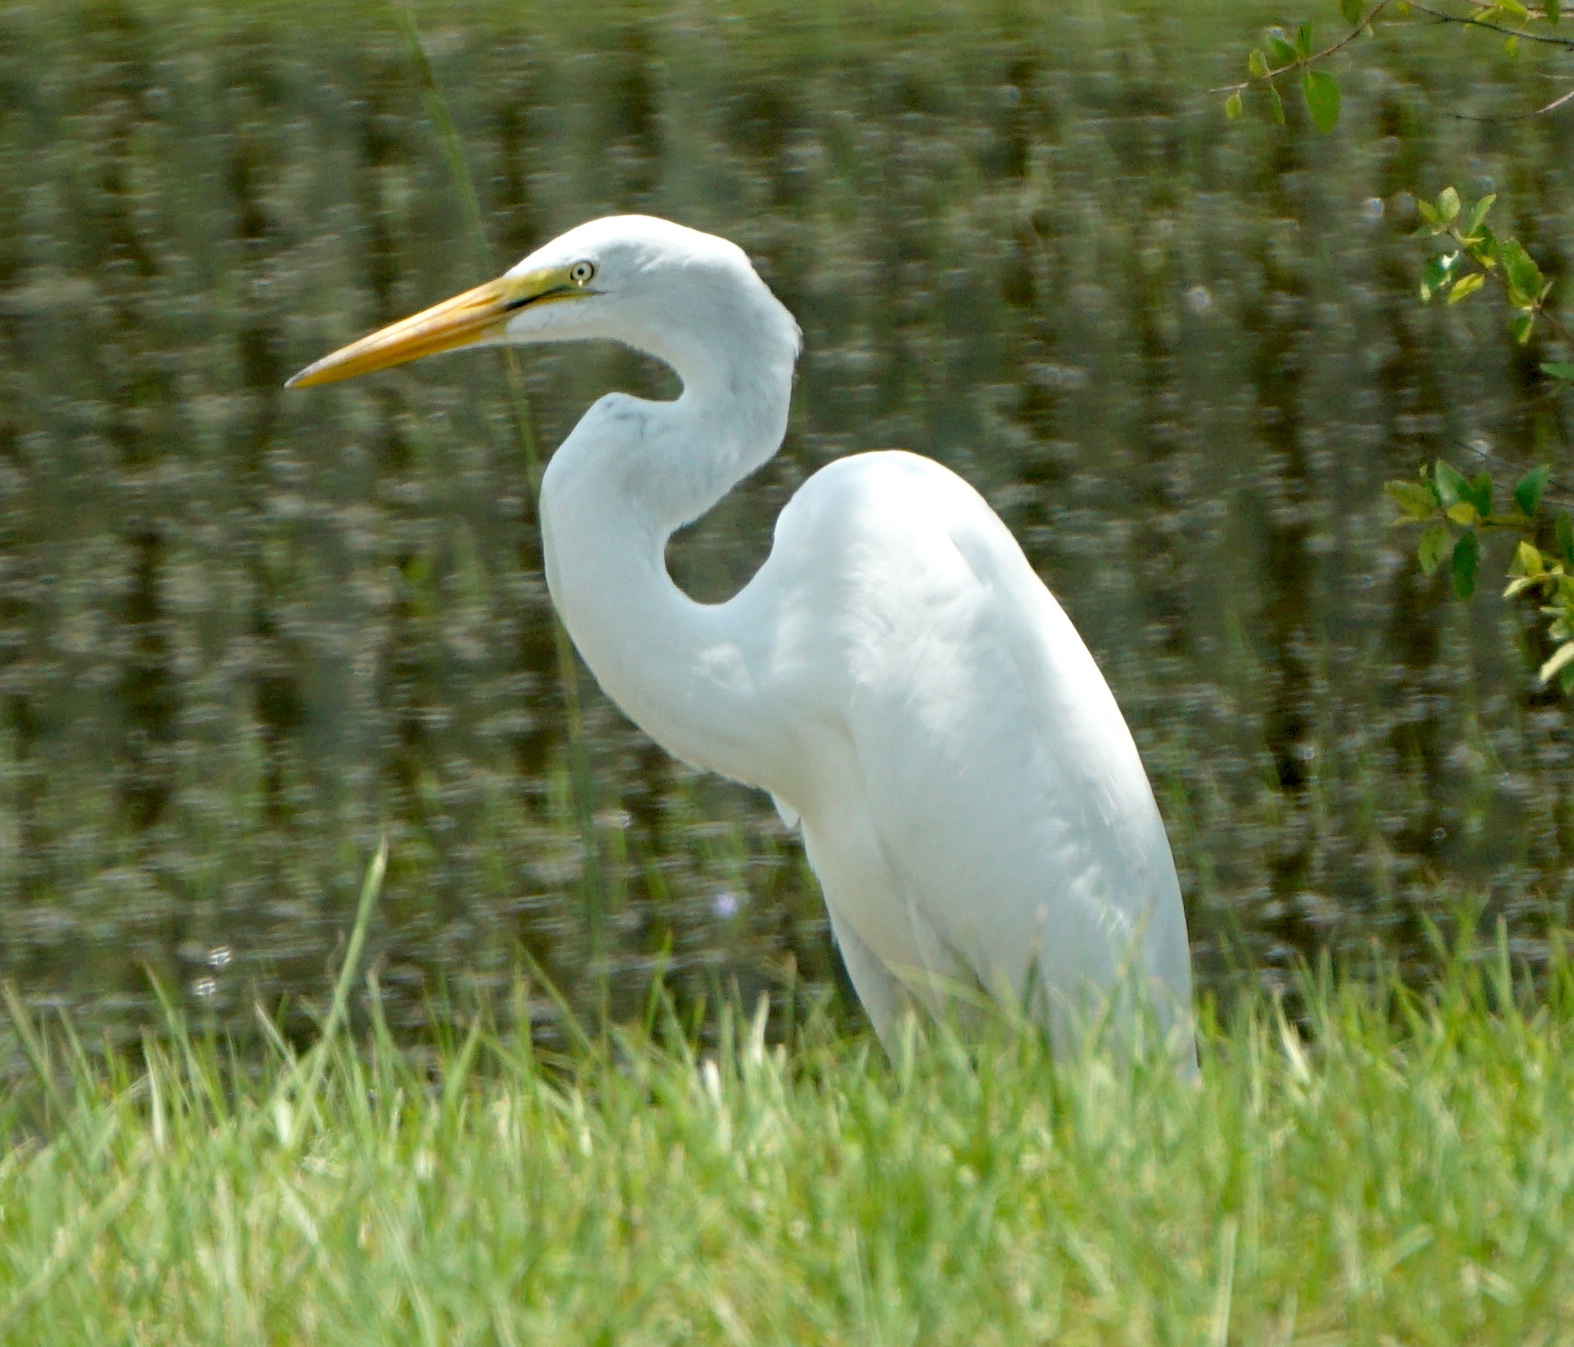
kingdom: Animalia
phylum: Chordata
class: Aves
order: Pelecaniformes
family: Ardeidae
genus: Ardea
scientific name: Ardea alba
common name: Great egret
